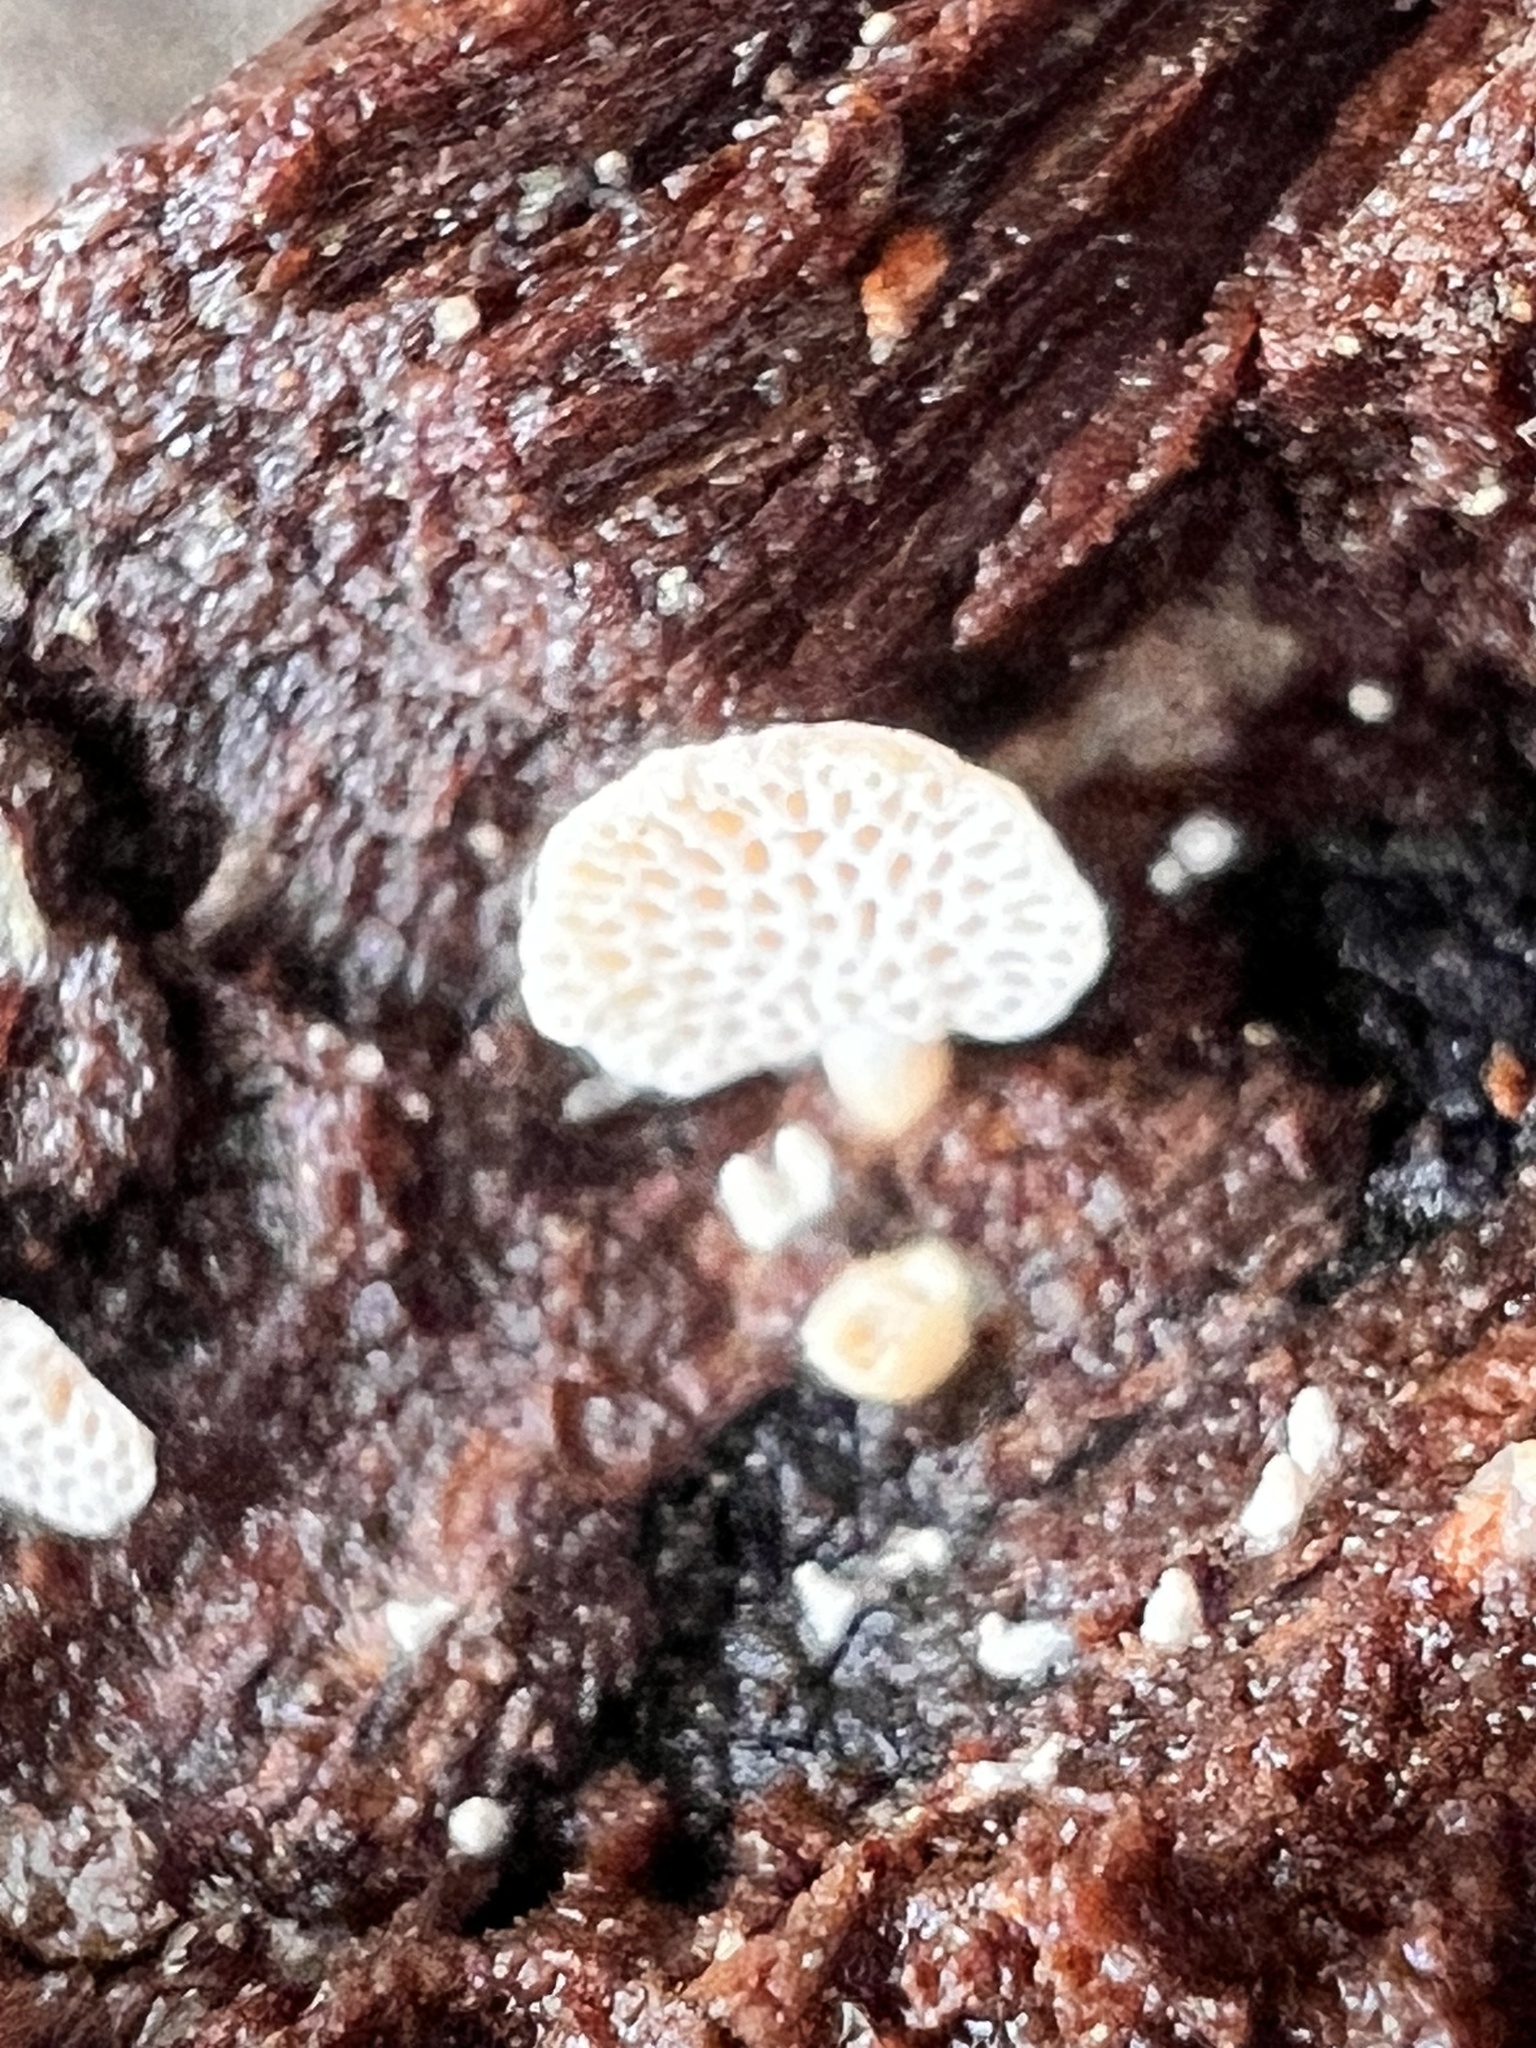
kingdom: Fungi
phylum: Basidiomycota
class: Agaricomycetes
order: Agaricales
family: Mycenaceae
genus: Panellus
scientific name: Panellus luxfilamentus
